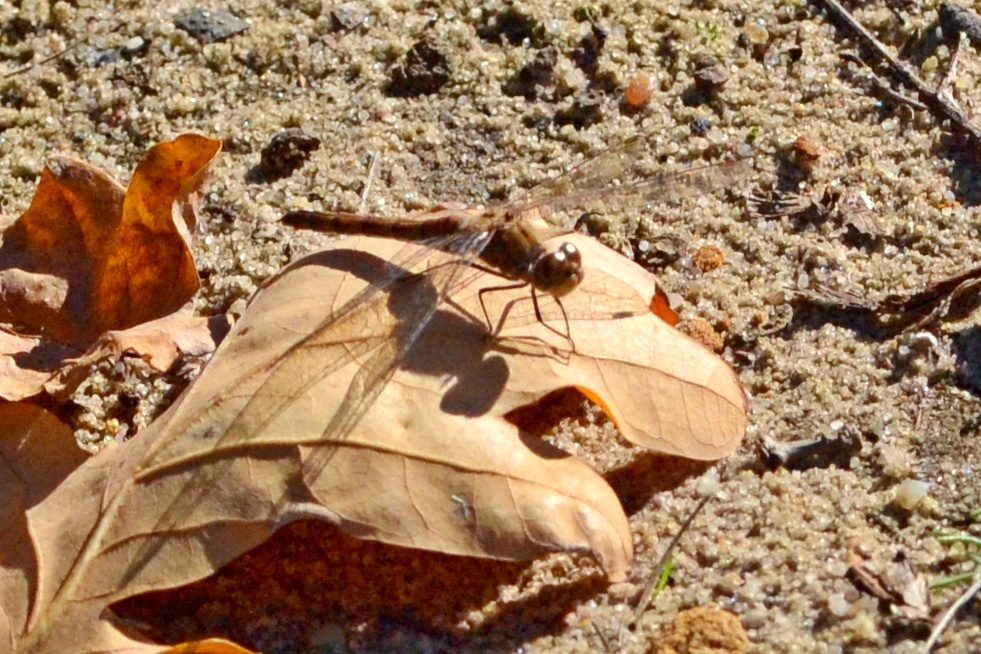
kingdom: Animalia
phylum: Arthropoda
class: Insecta
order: Odonata
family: Libellulidae
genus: Sympetrum
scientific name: Sympetrum vulgatum
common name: Vagrant darter
